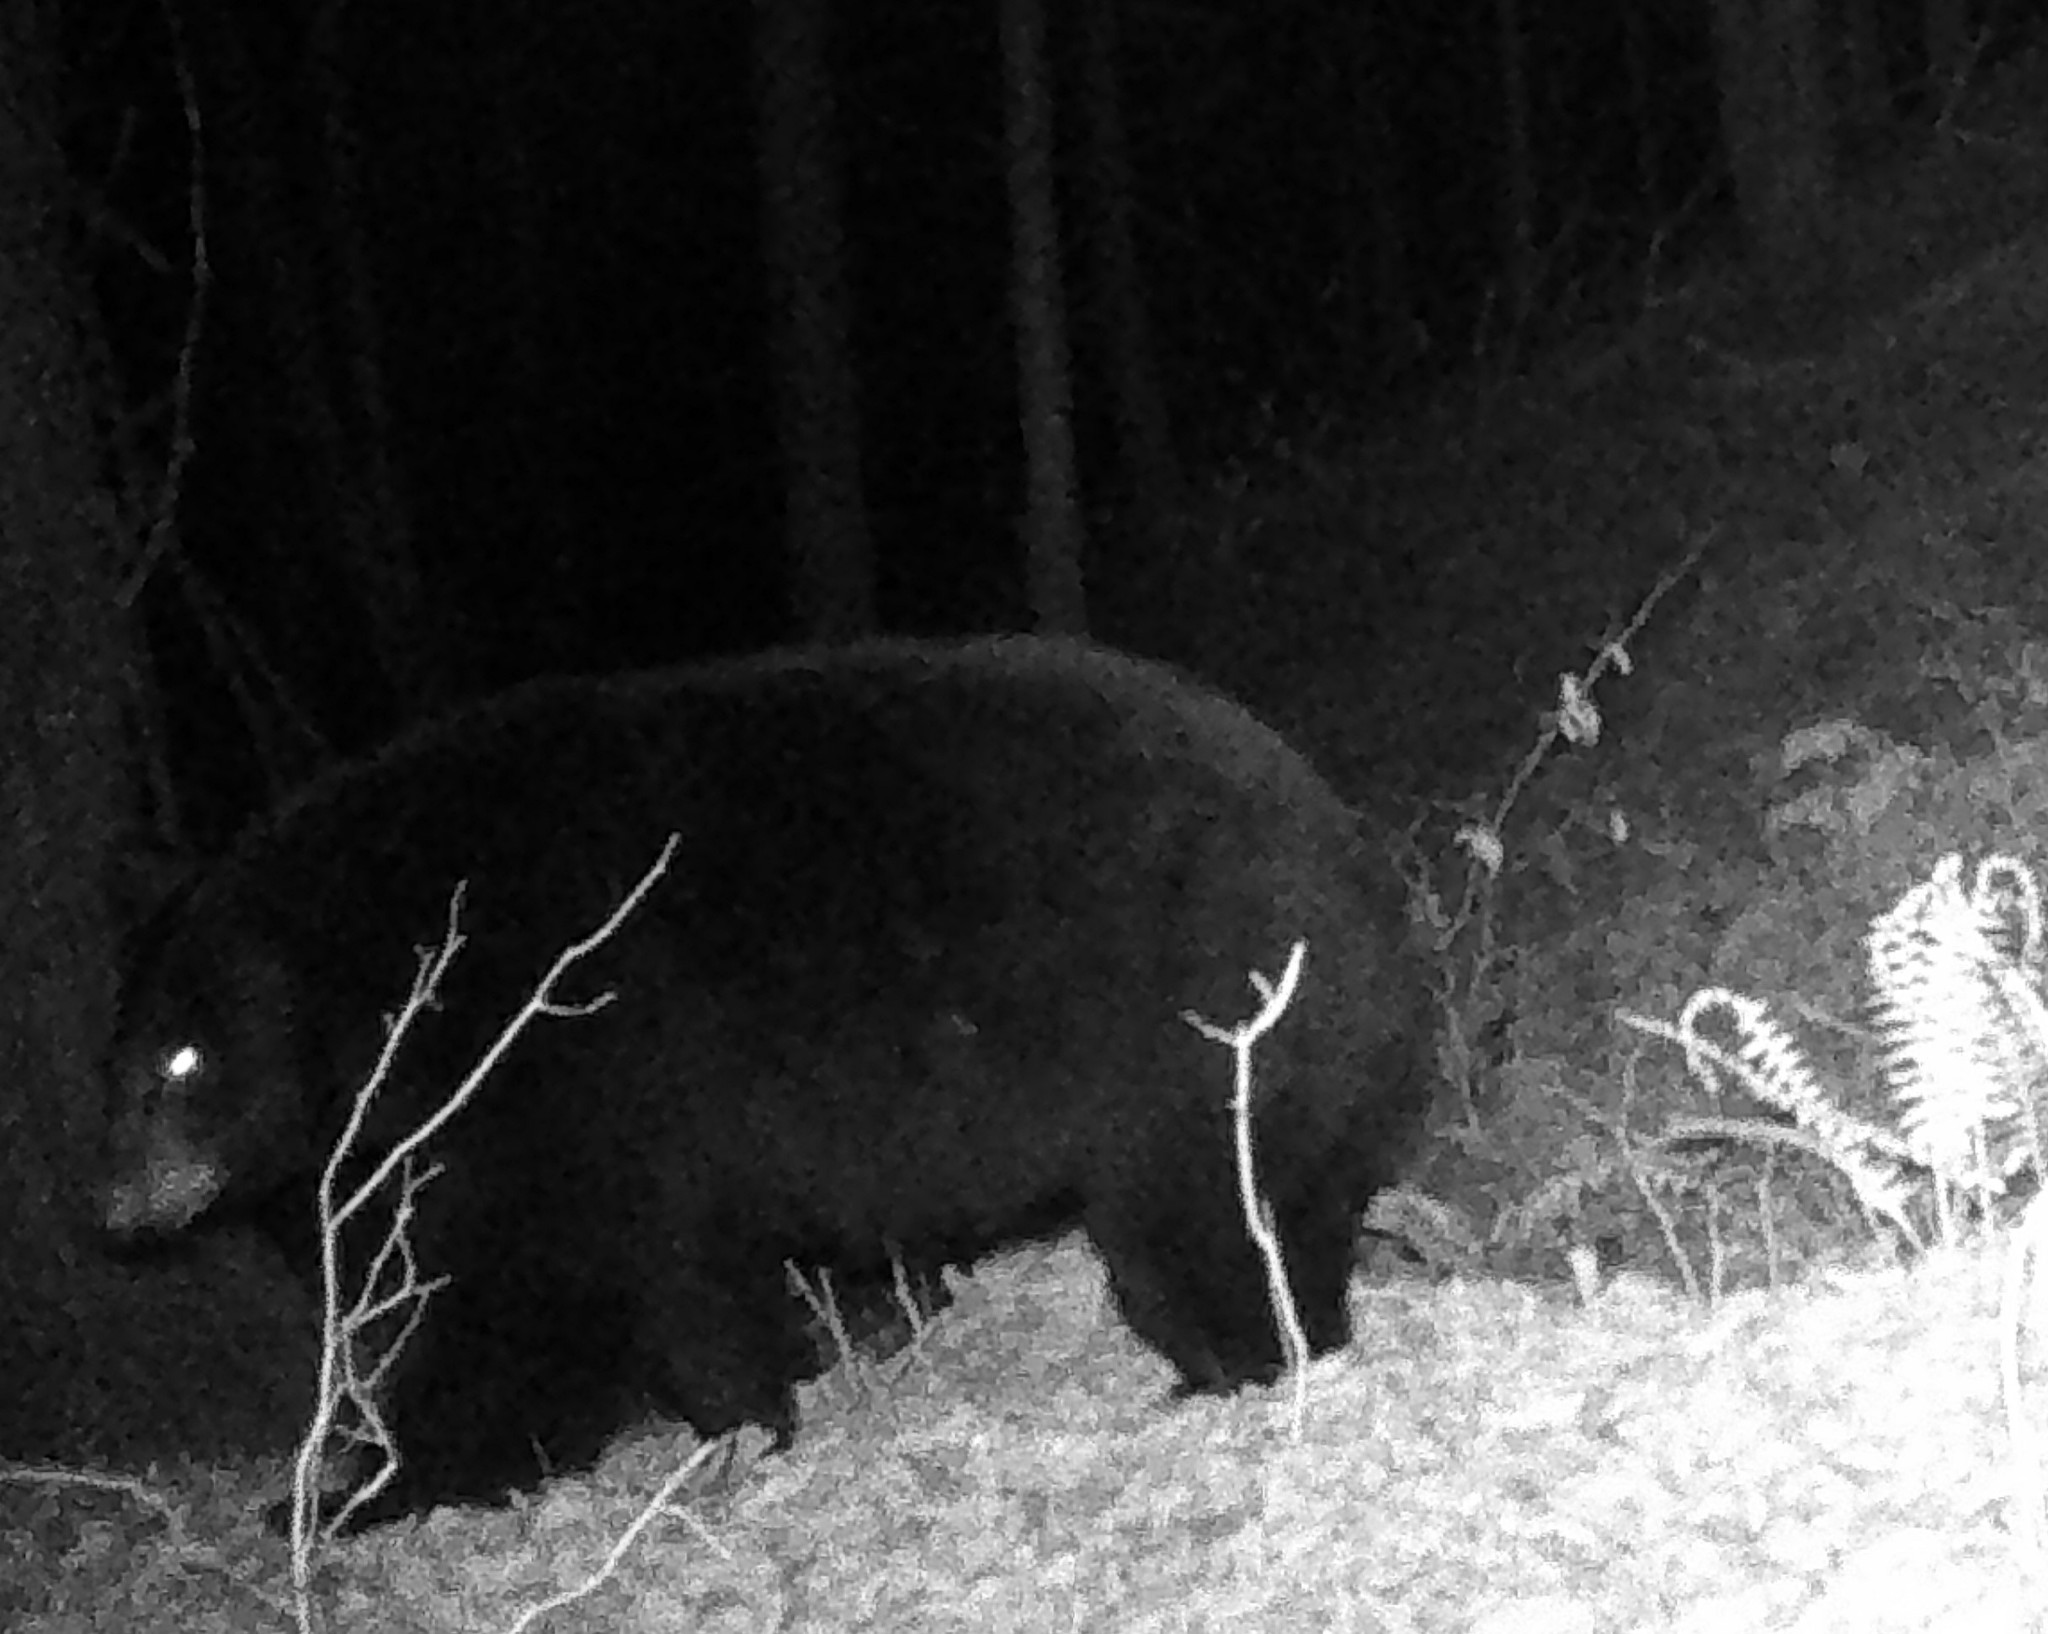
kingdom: Animalia
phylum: Chordata
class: Mammalia
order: Carnivora
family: Ursidae
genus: Ursus
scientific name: Ursus americanus
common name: American black bear
